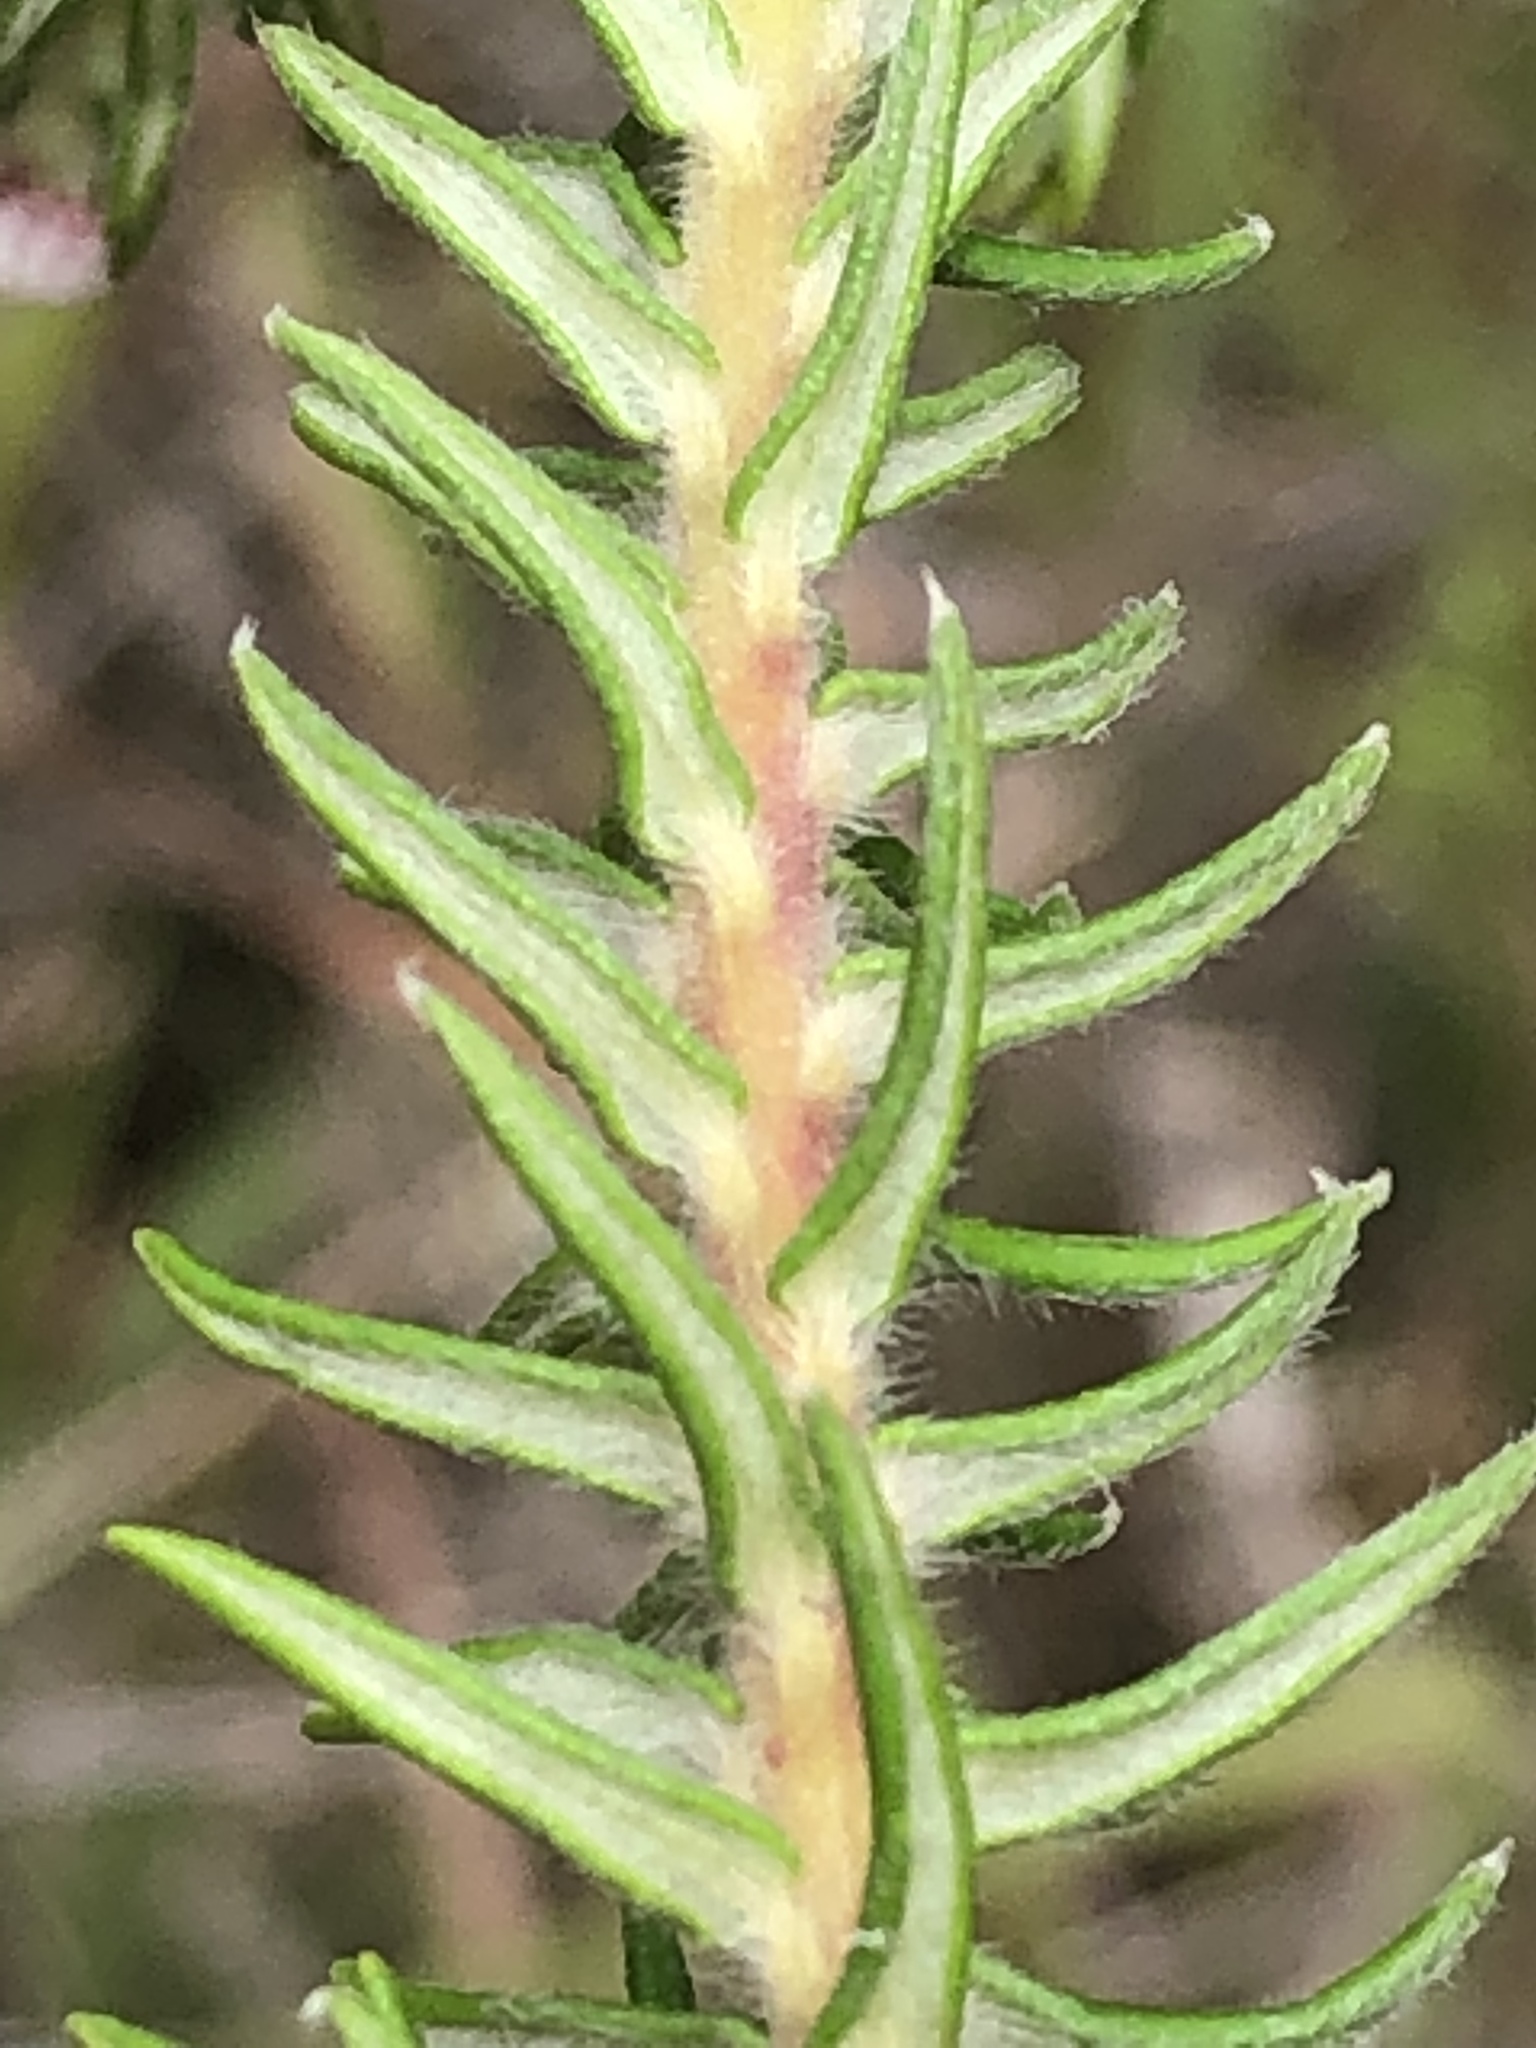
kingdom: Plantae
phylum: Tracheophyta
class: Magnoliopsida
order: Rosales
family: Rhamnaceae
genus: Phylica
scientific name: Phylica purpurea
